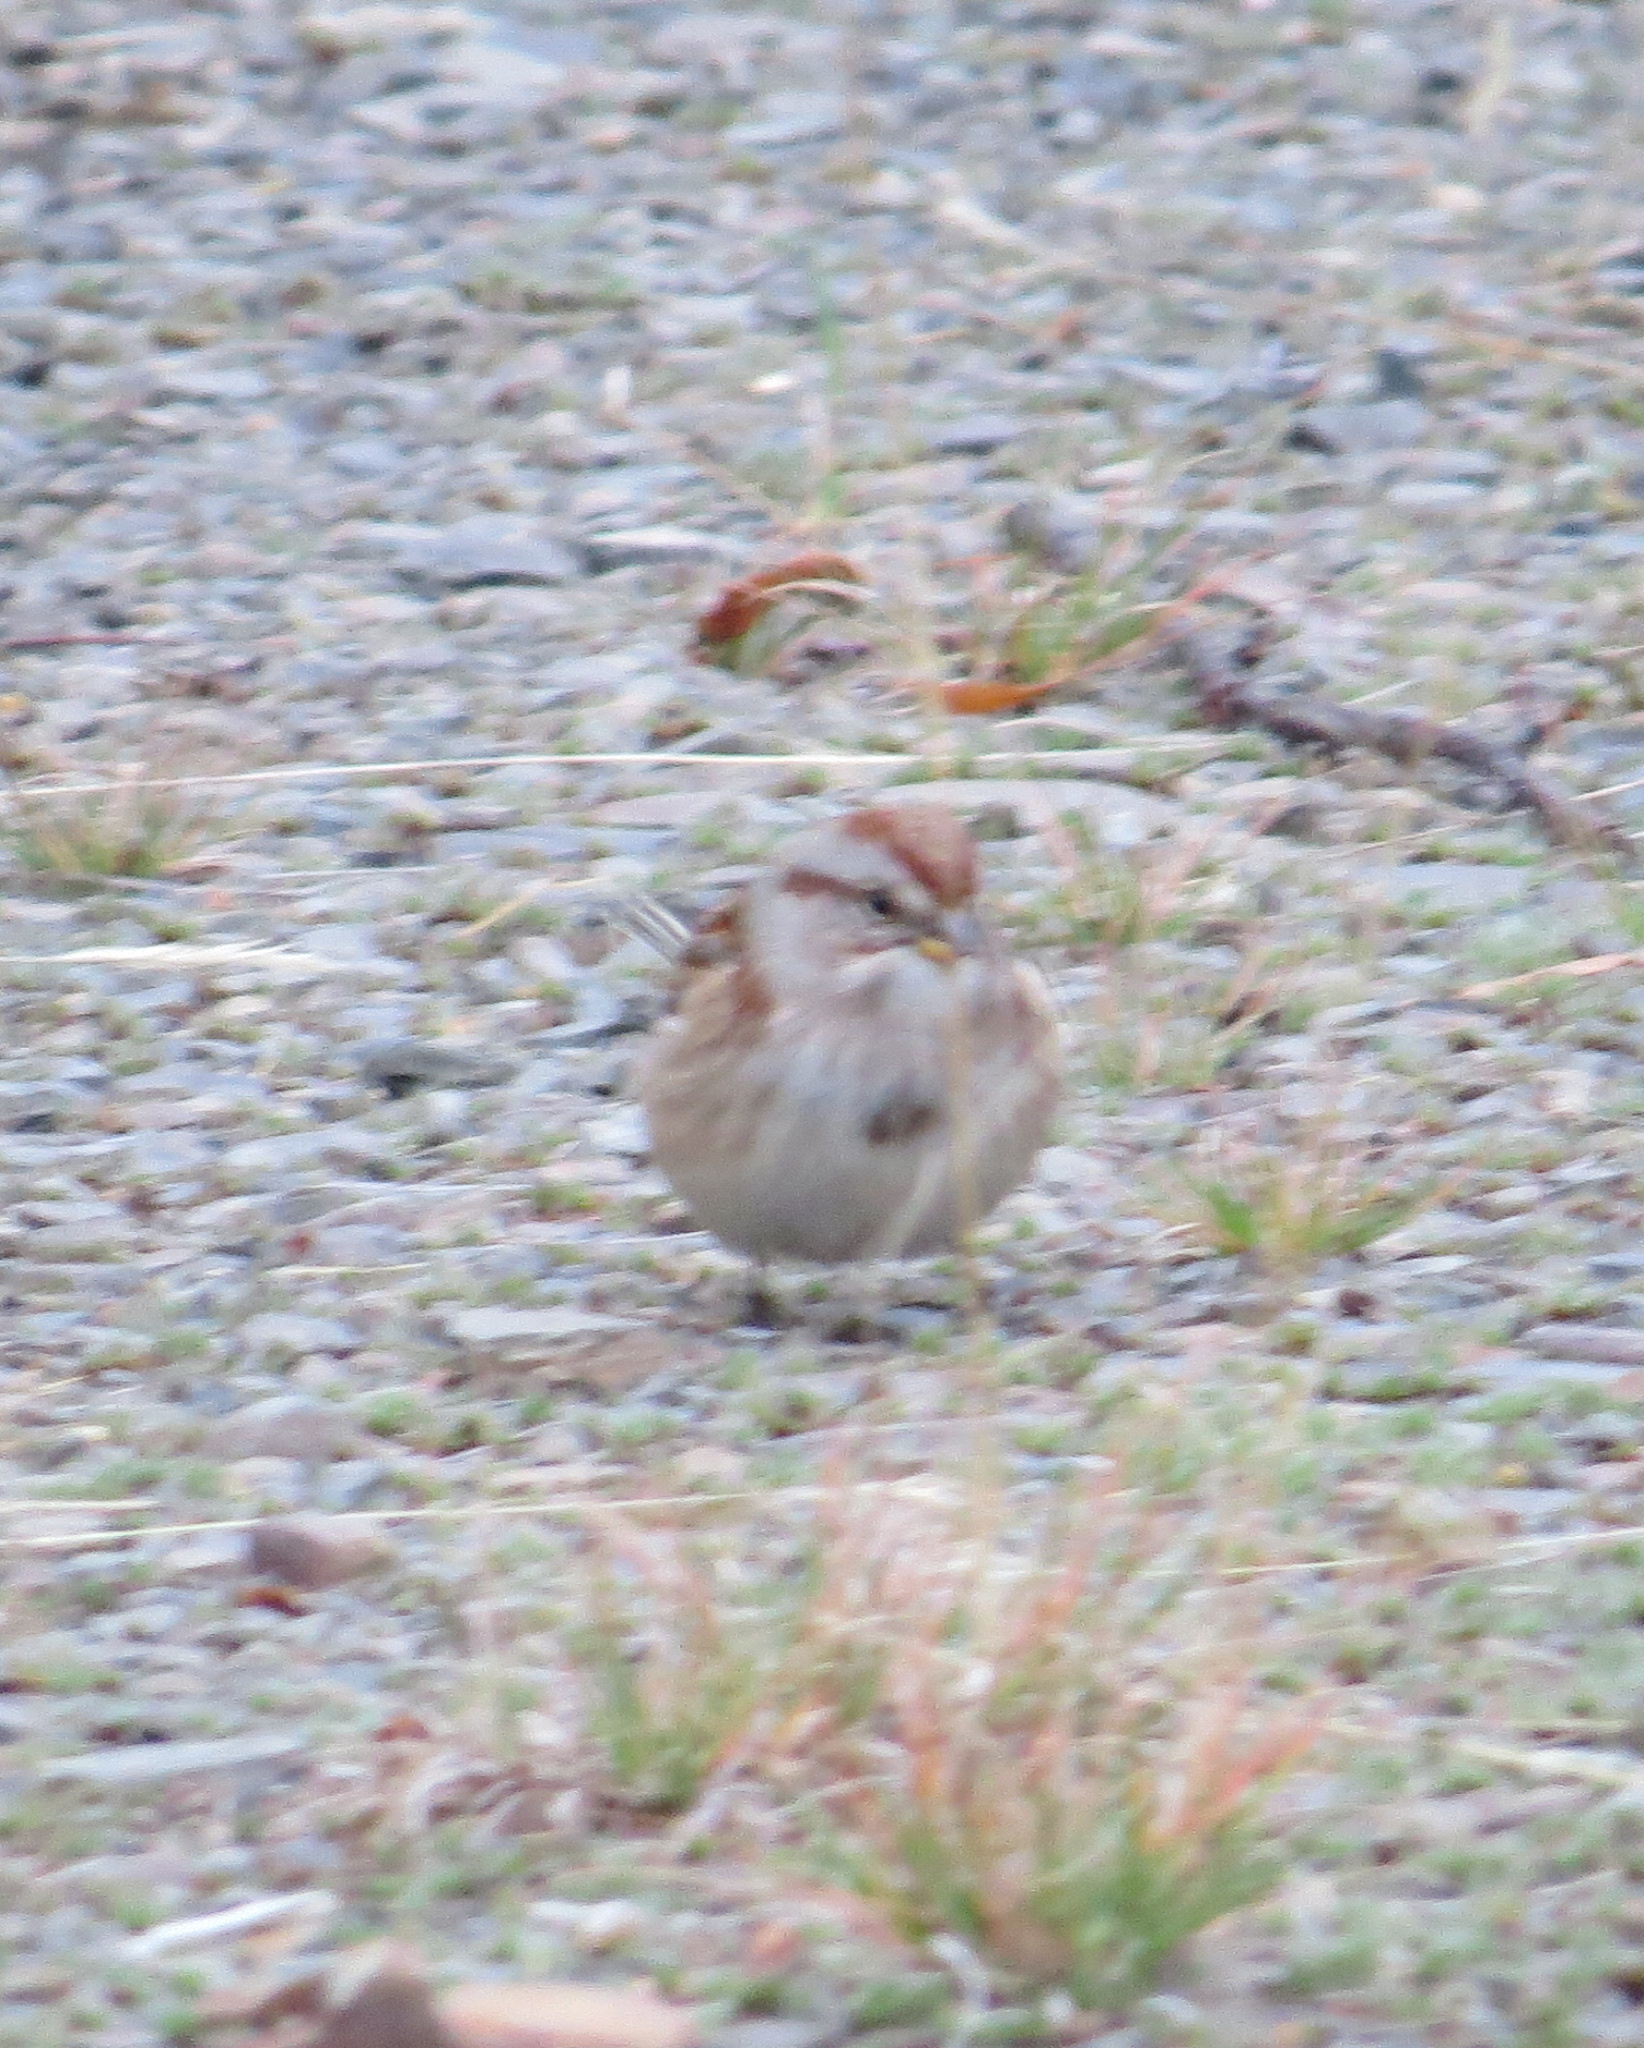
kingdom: Animalia
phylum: Chordata
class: Aves
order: Passeriformes
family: Passerellidae
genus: Spizelloides
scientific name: Spizelloides arborea
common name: American tree sparrow
